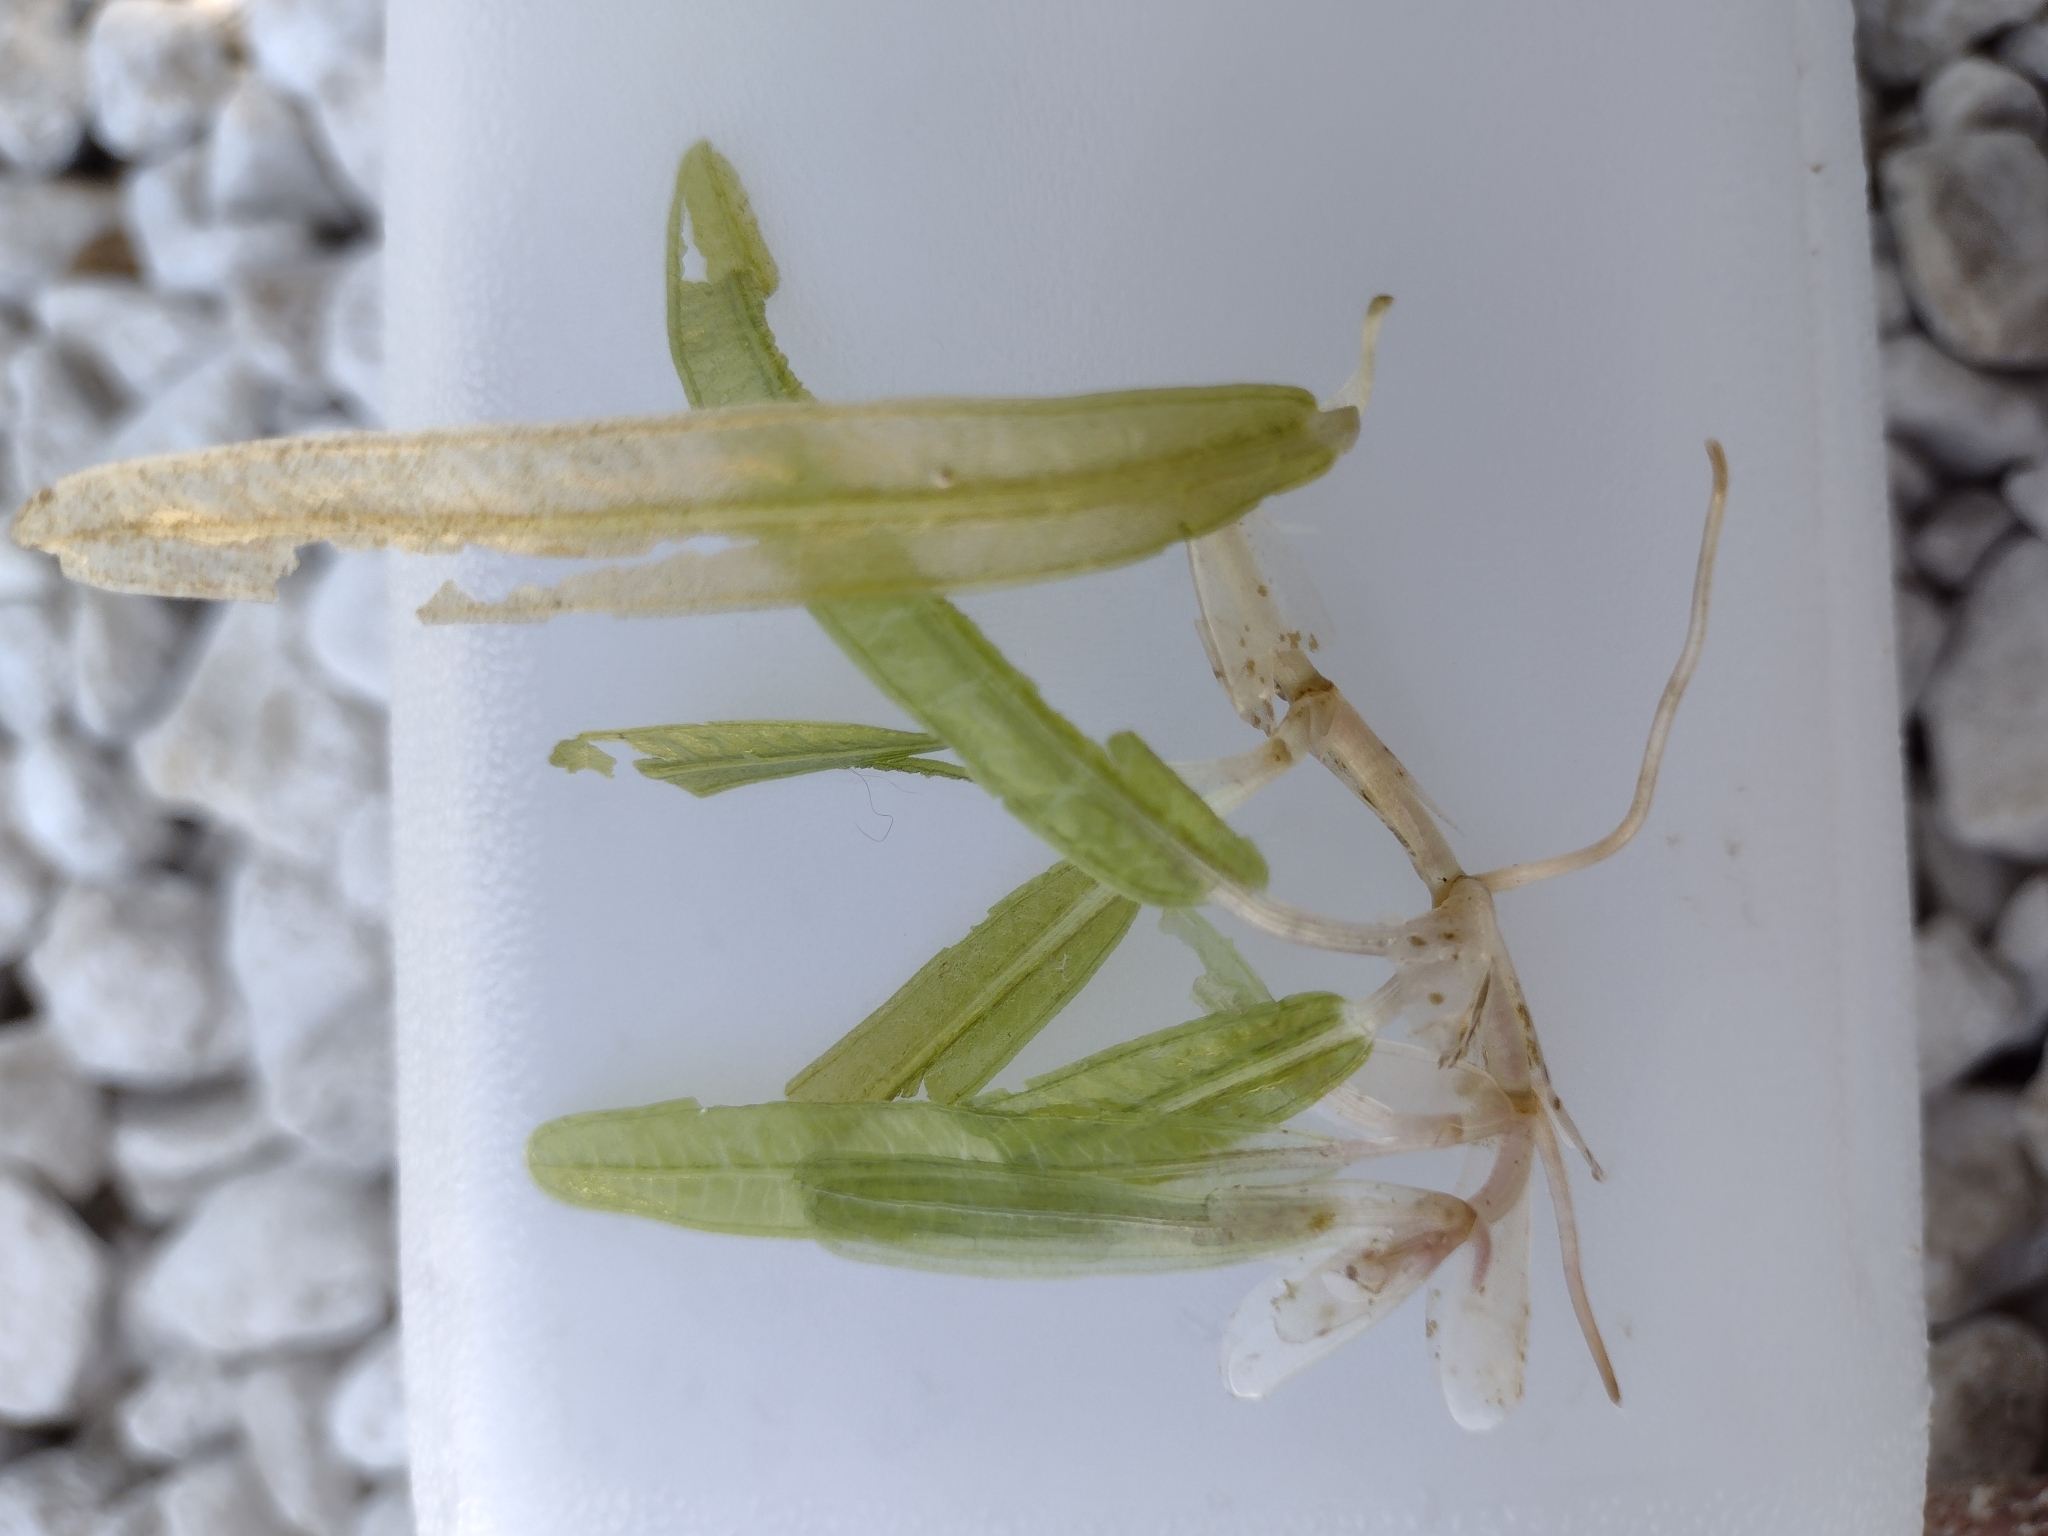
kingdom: Plantae
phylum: Tracheophyta
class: Liliopsida
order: Alismatales
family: Hydrocharitaceae
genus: Halophila
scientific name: Halophila stipulacea
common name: Species code: hs
